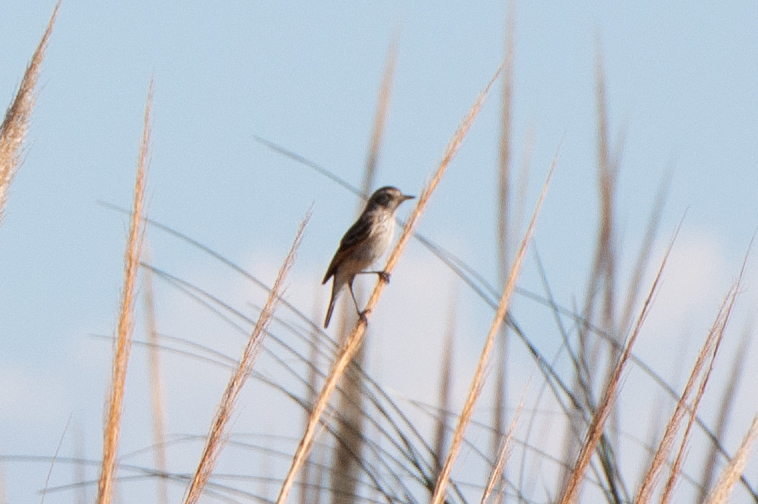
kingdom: Animalia
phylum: Chordata
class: Aves
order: Passeriformes
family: Tyrannidae
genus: Hymenops
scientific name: Hymenops perspicillatus
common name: Spectacled tyrant
